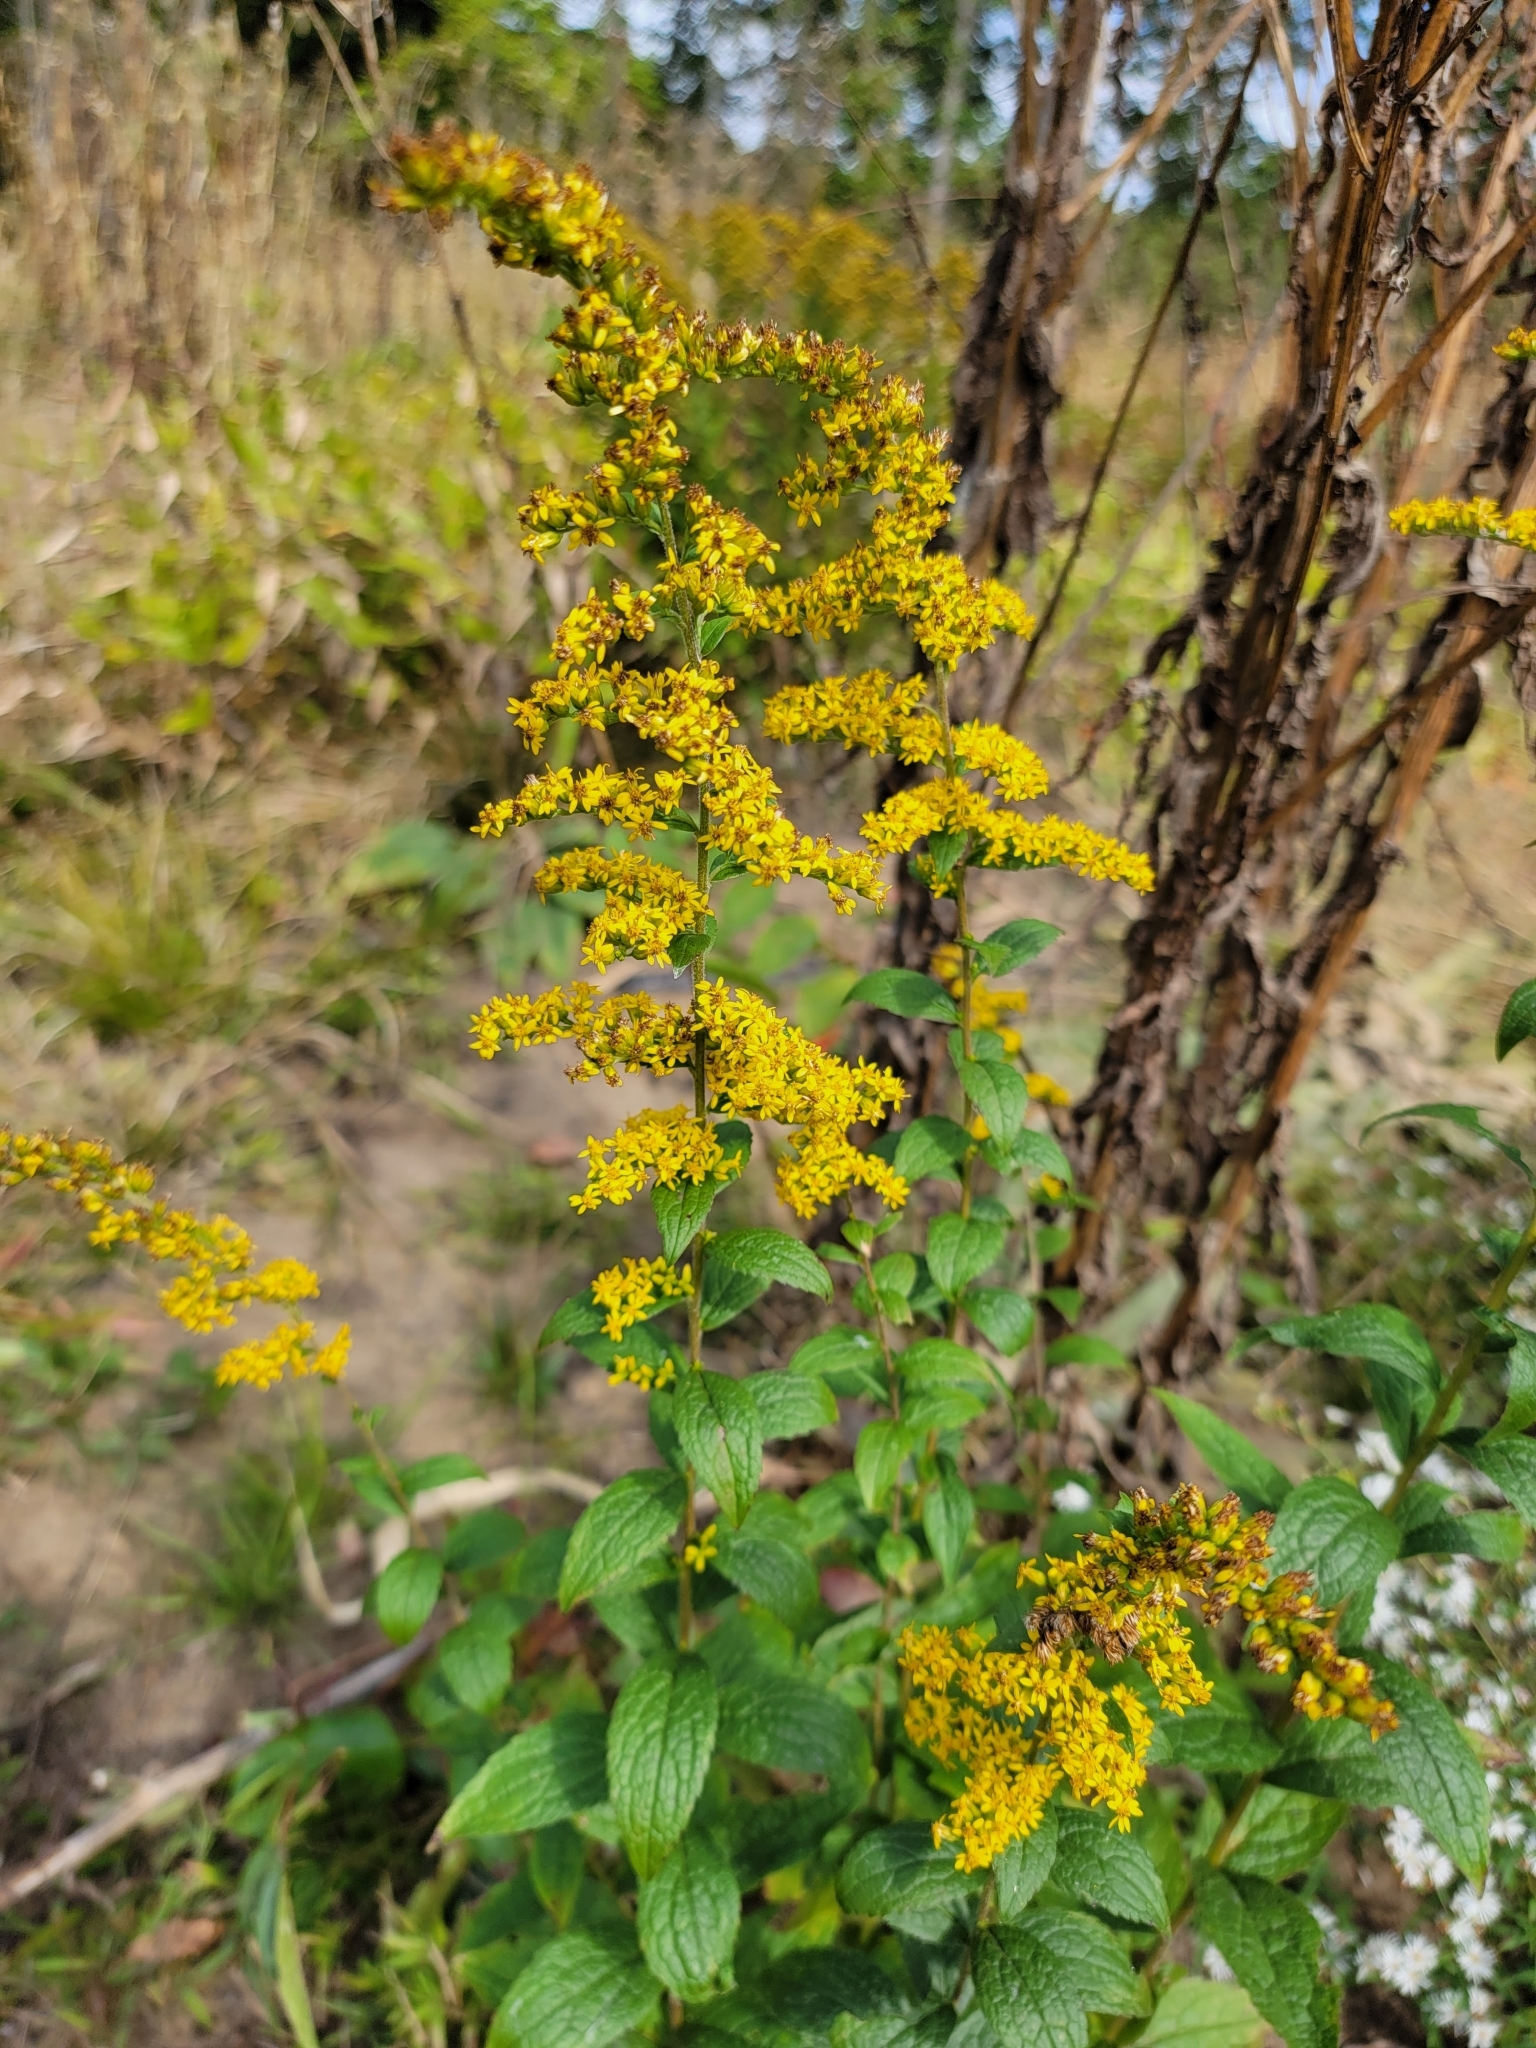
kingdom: Plantae
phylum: Tracheophyta
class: Magnoliopsida
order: Asterales
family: Asteraceae
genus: Solidago
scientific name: Solidago rugosa
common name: Rough-stemmed goldenrod
